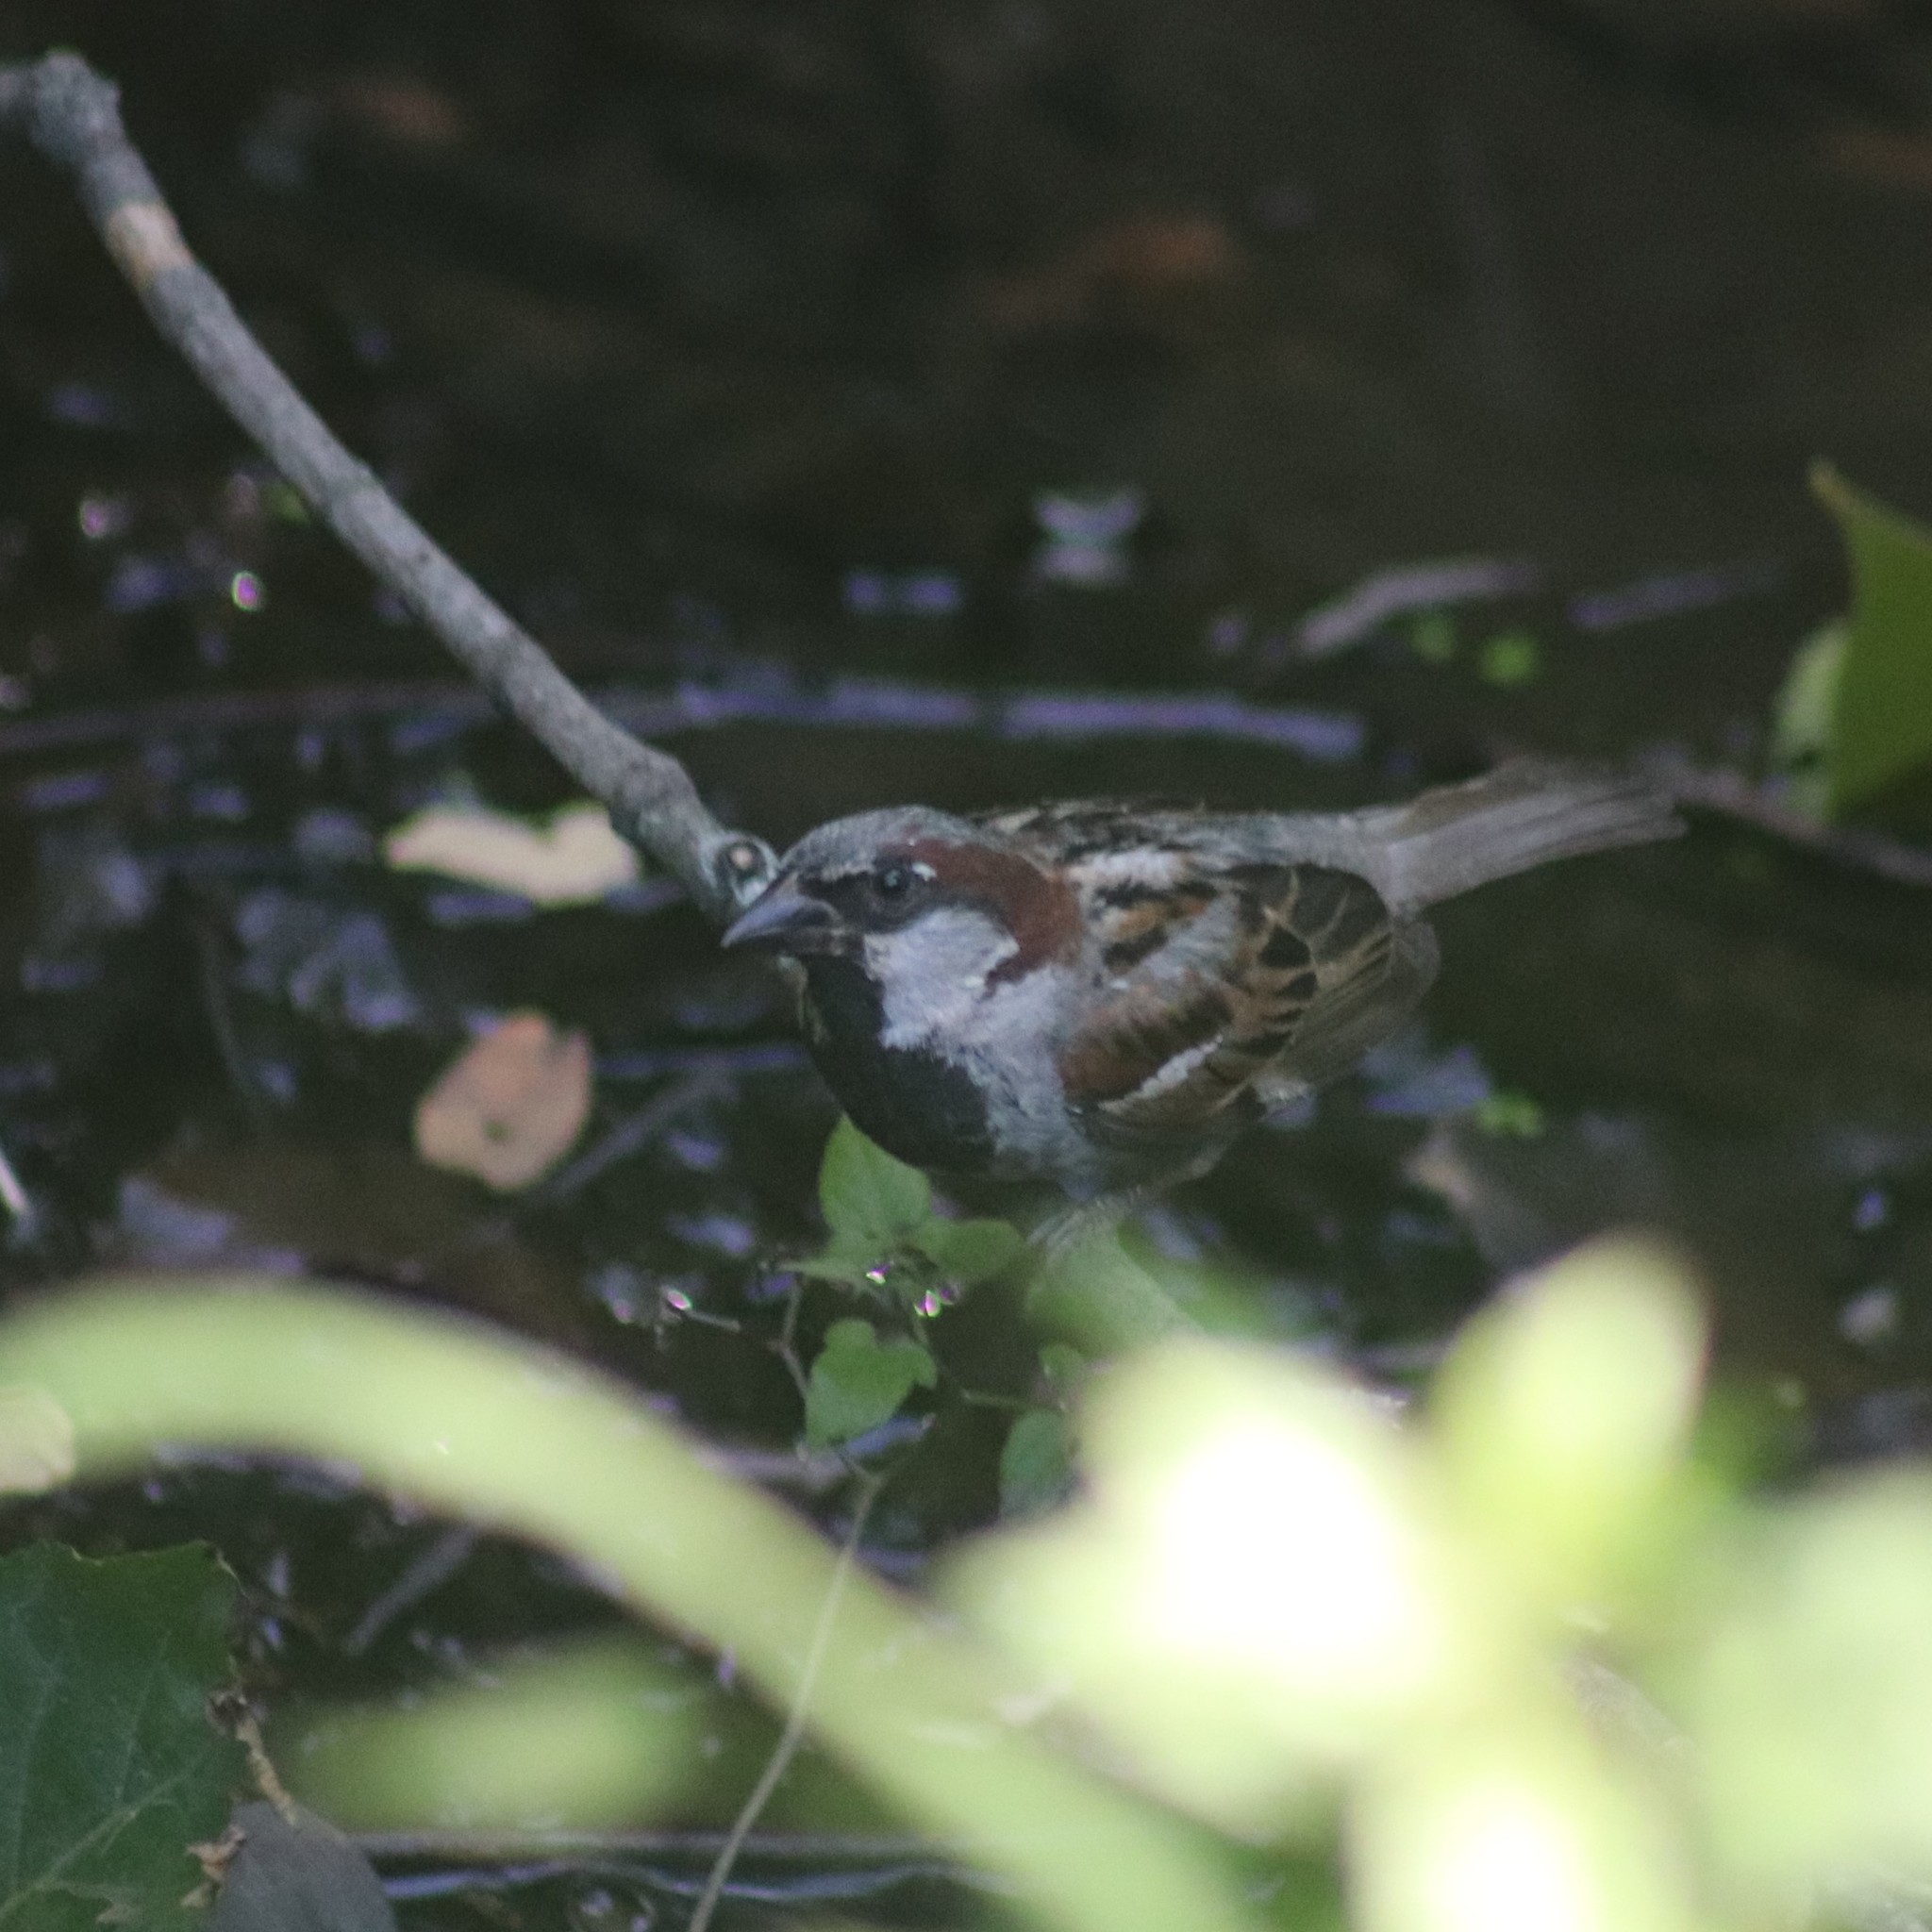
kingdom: Animalia
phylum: Chordata
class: Aves
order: Passeriformes
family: Passeridae
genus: Passer
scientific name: Passer domesticus
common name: House sparrow
